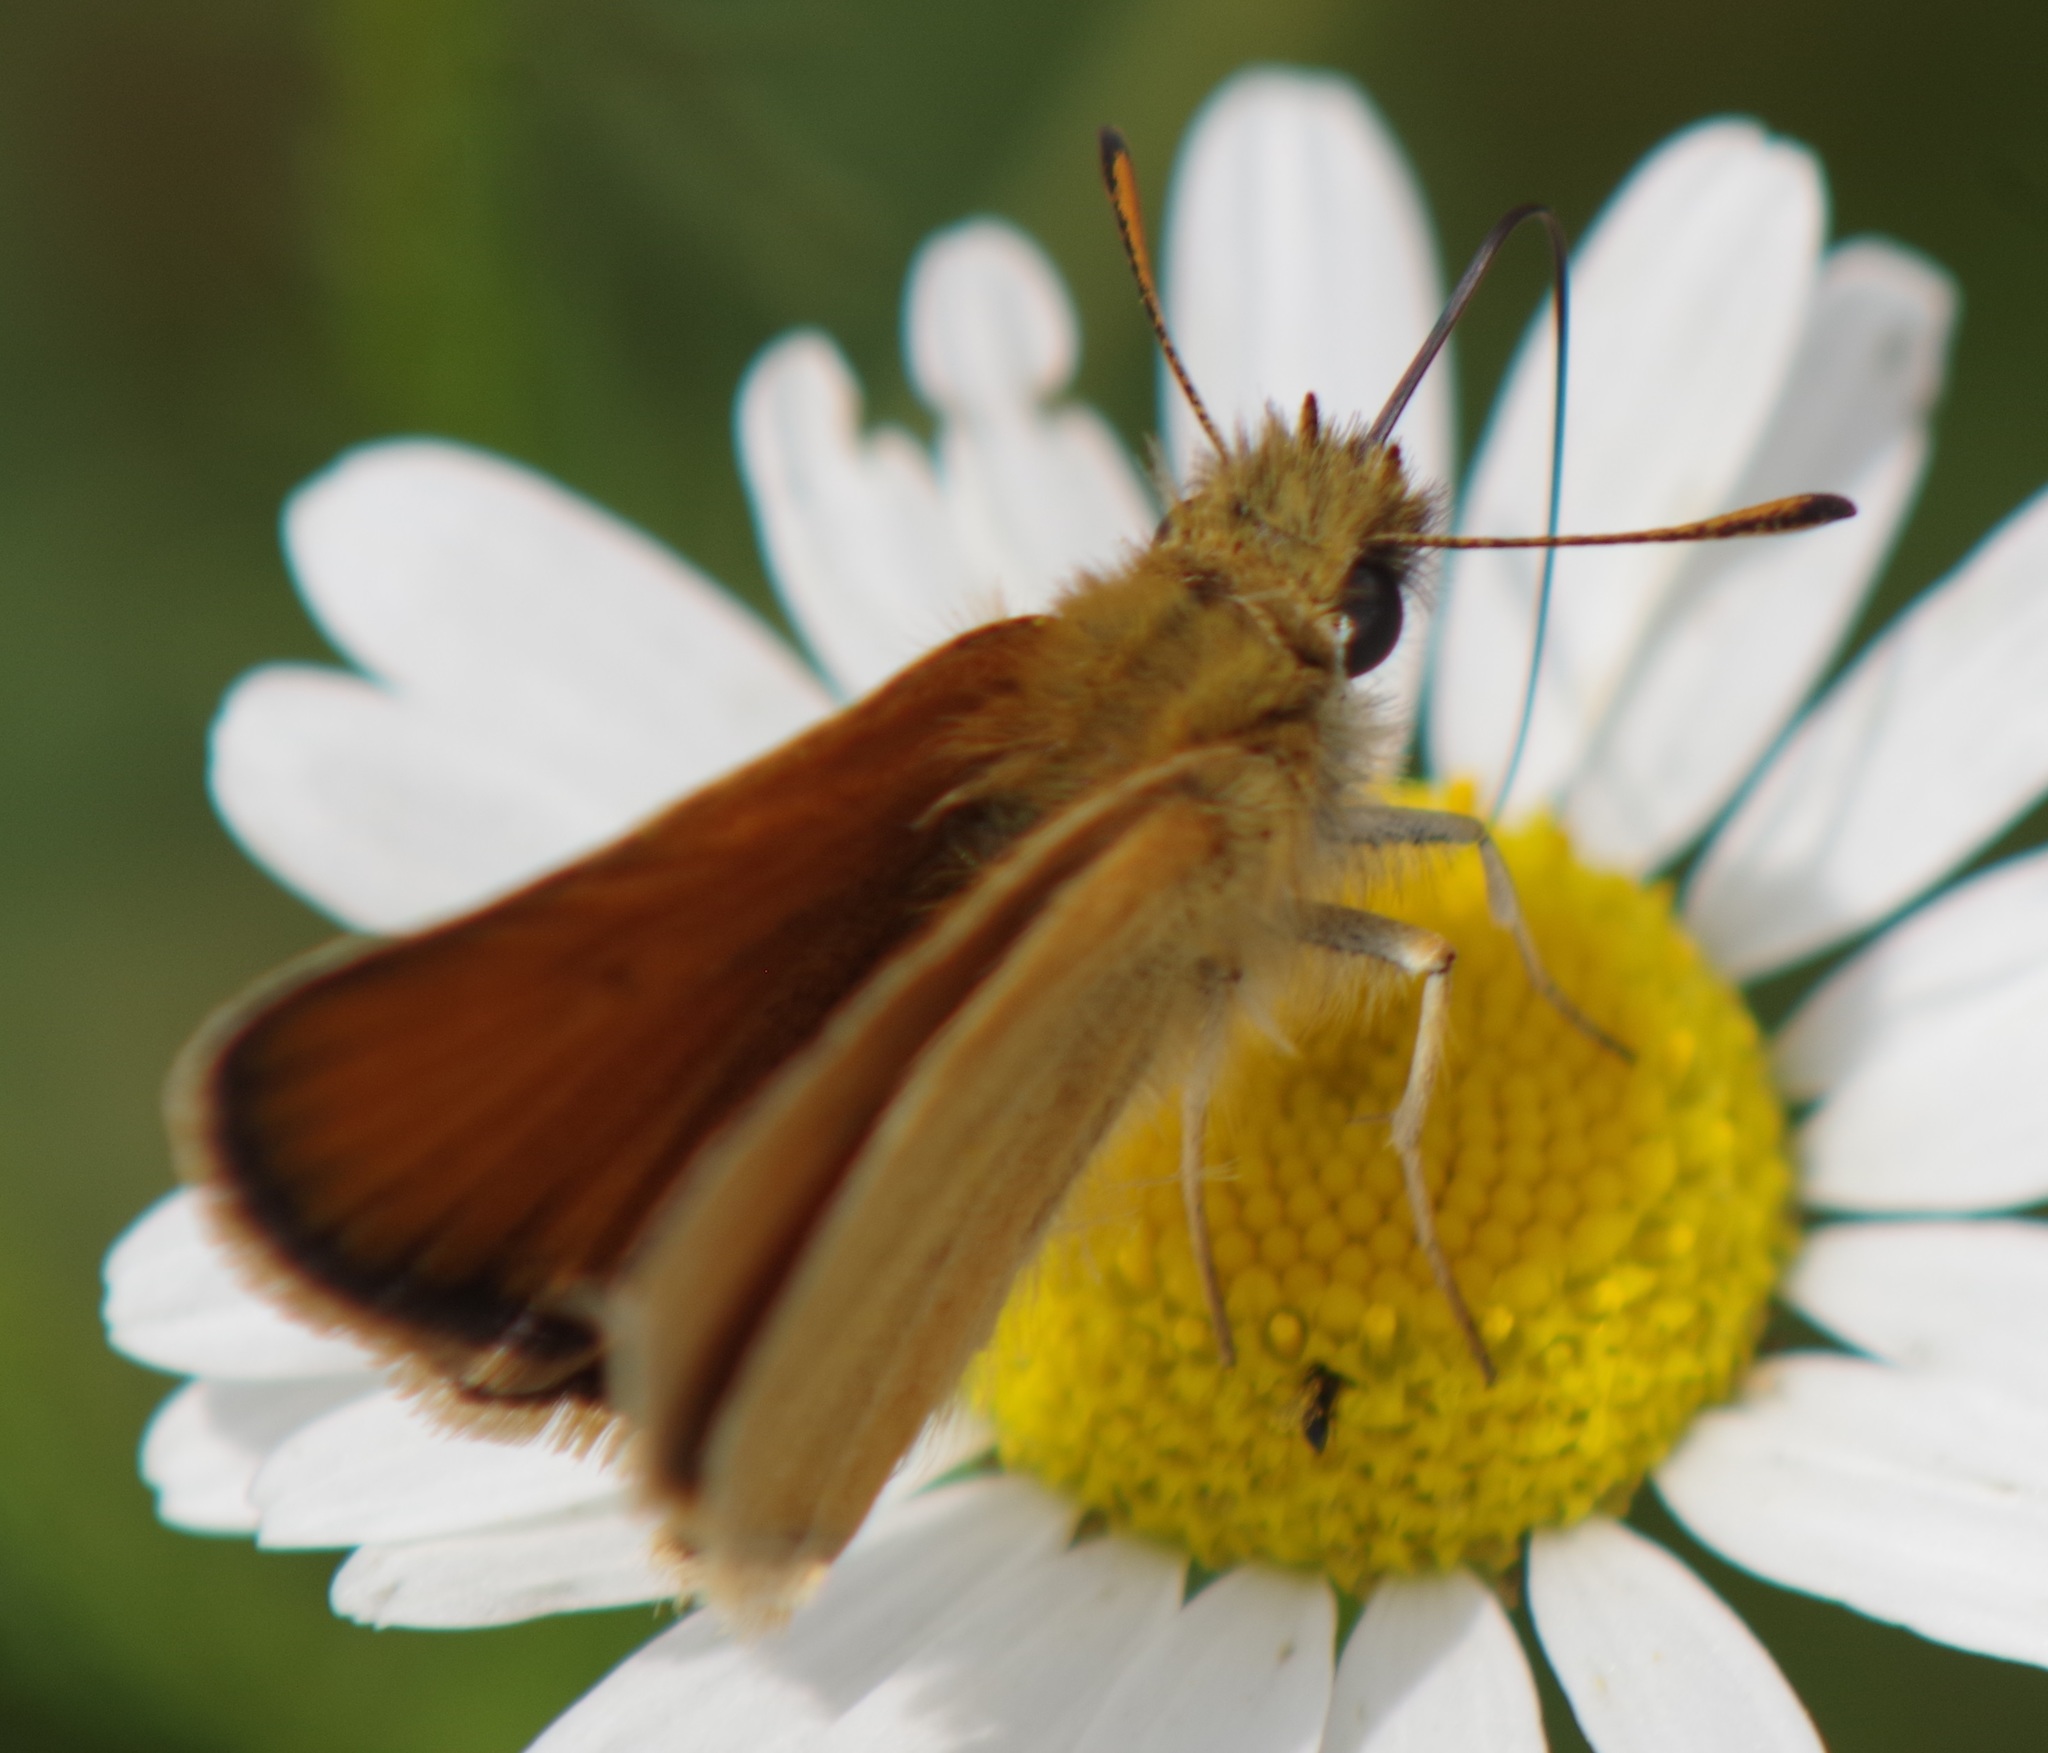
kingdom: Animalia
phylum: Arthropoda
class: Insecta
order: Lepidoptera
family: Hesperiidae
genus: Thymelicus
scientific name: Thymelicus lineola
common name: Essex skipper
